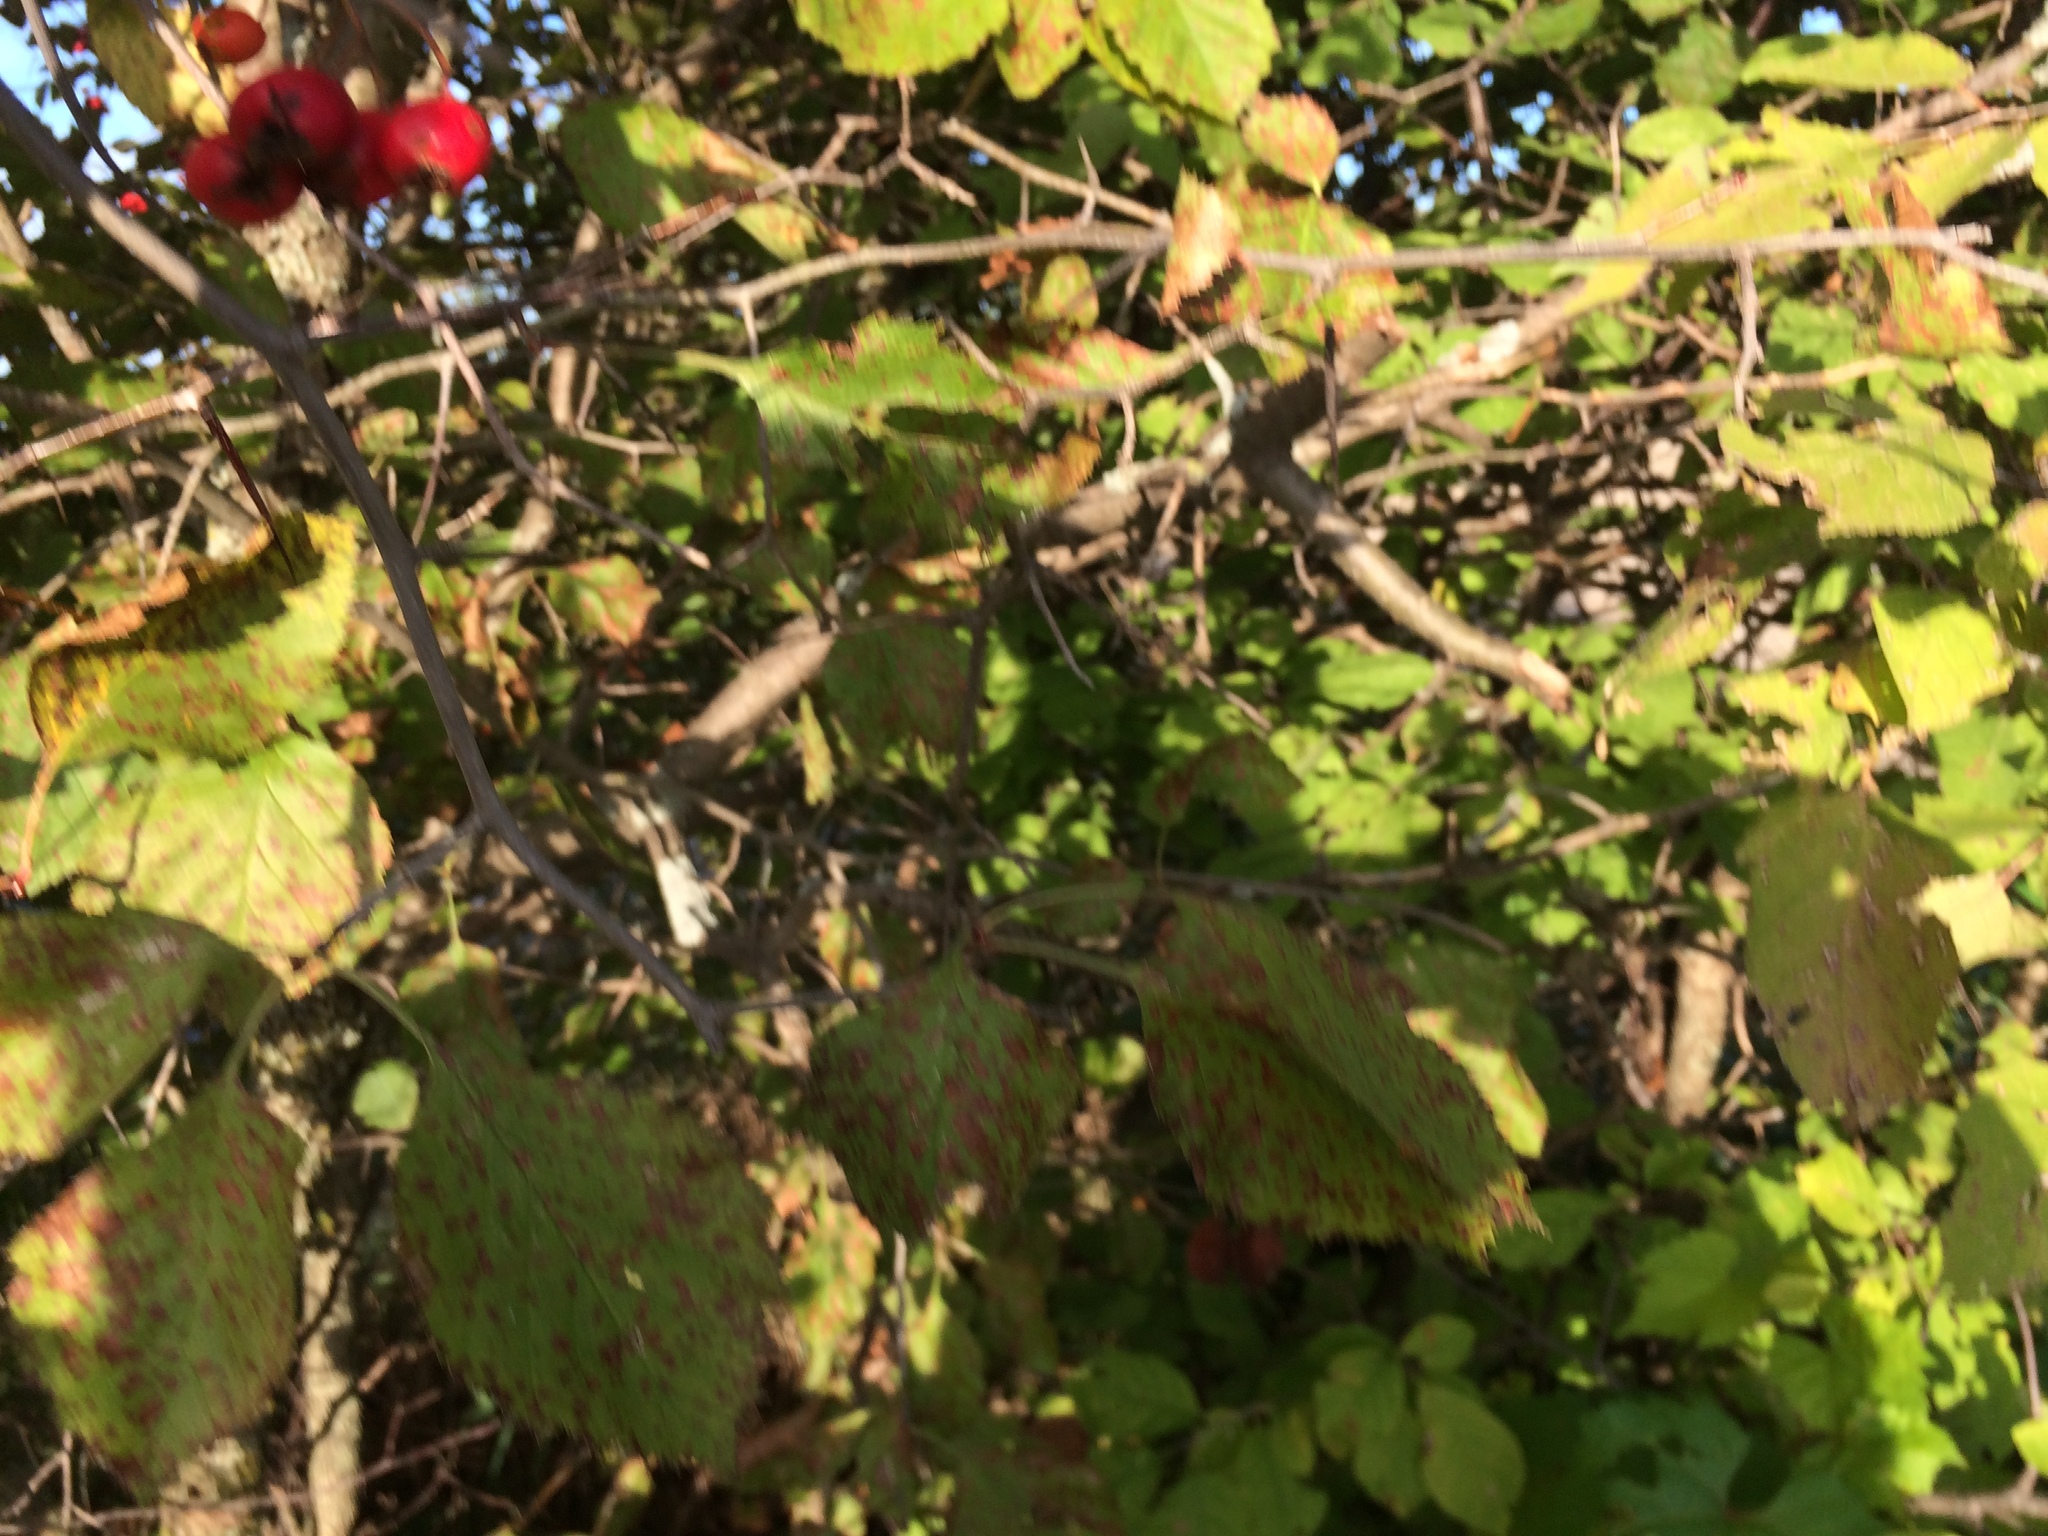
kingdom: Plantae
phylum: Tracheophyta
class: Magnoliopsida
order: Rosales
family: Rosaceae
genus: Crataegus
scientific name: Crataegus submollis
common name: Hairy cockspurthorn
